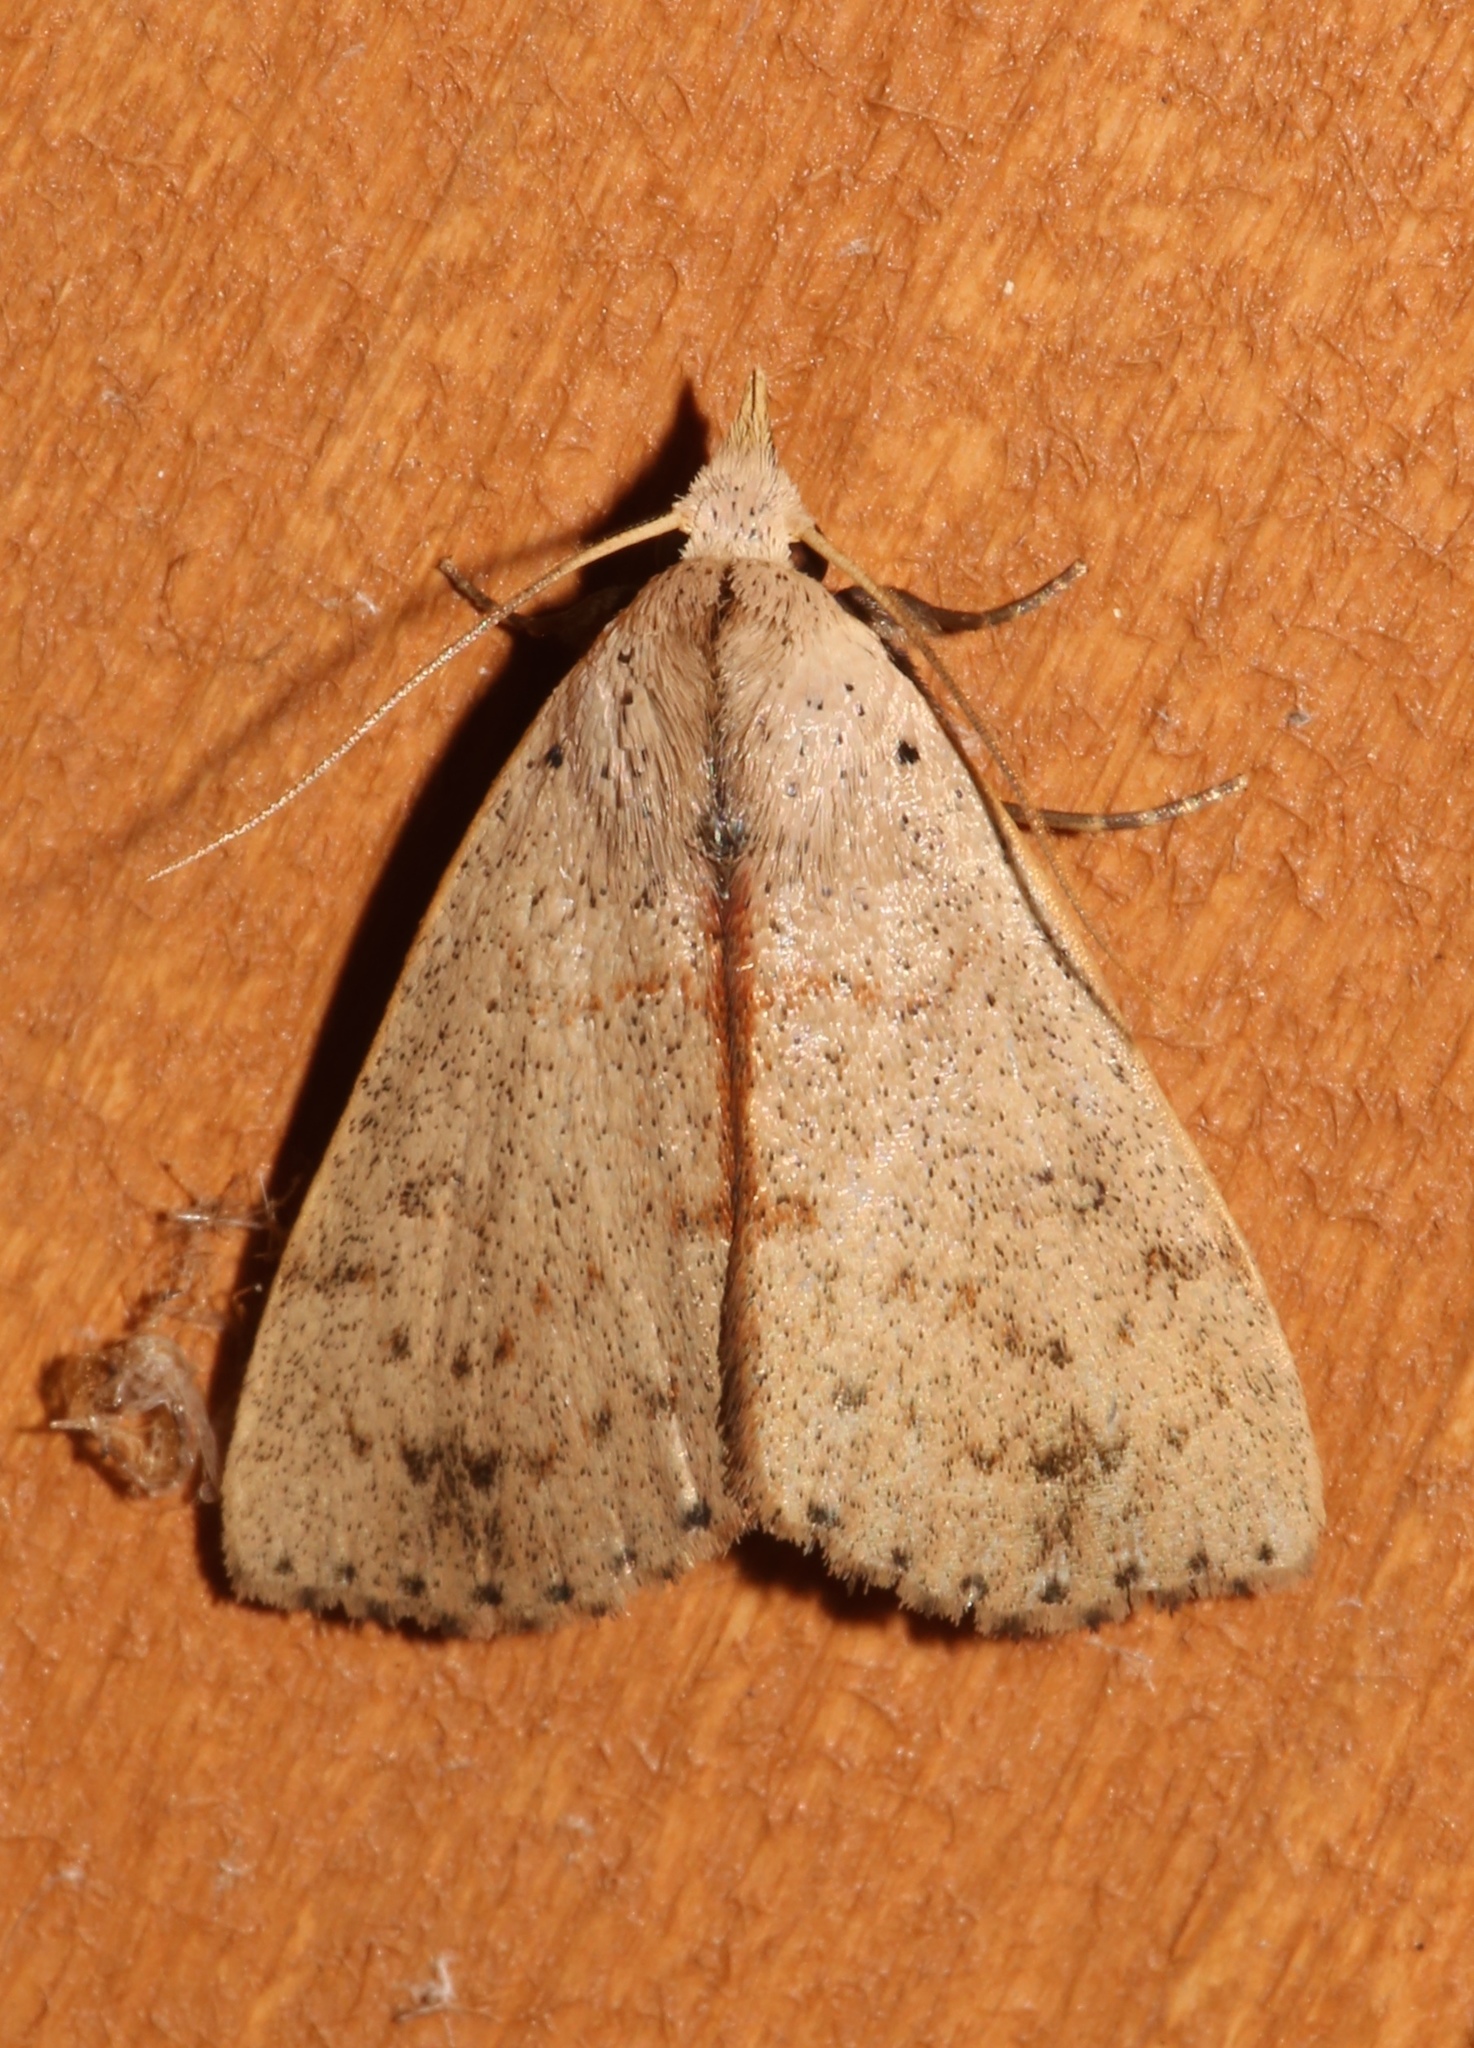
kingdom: Animalia
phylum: Arthropoda
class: Insecta
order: Lepidoptera
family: Erebidae
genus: Scolecocampa
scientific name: Scolecocampa liburna
